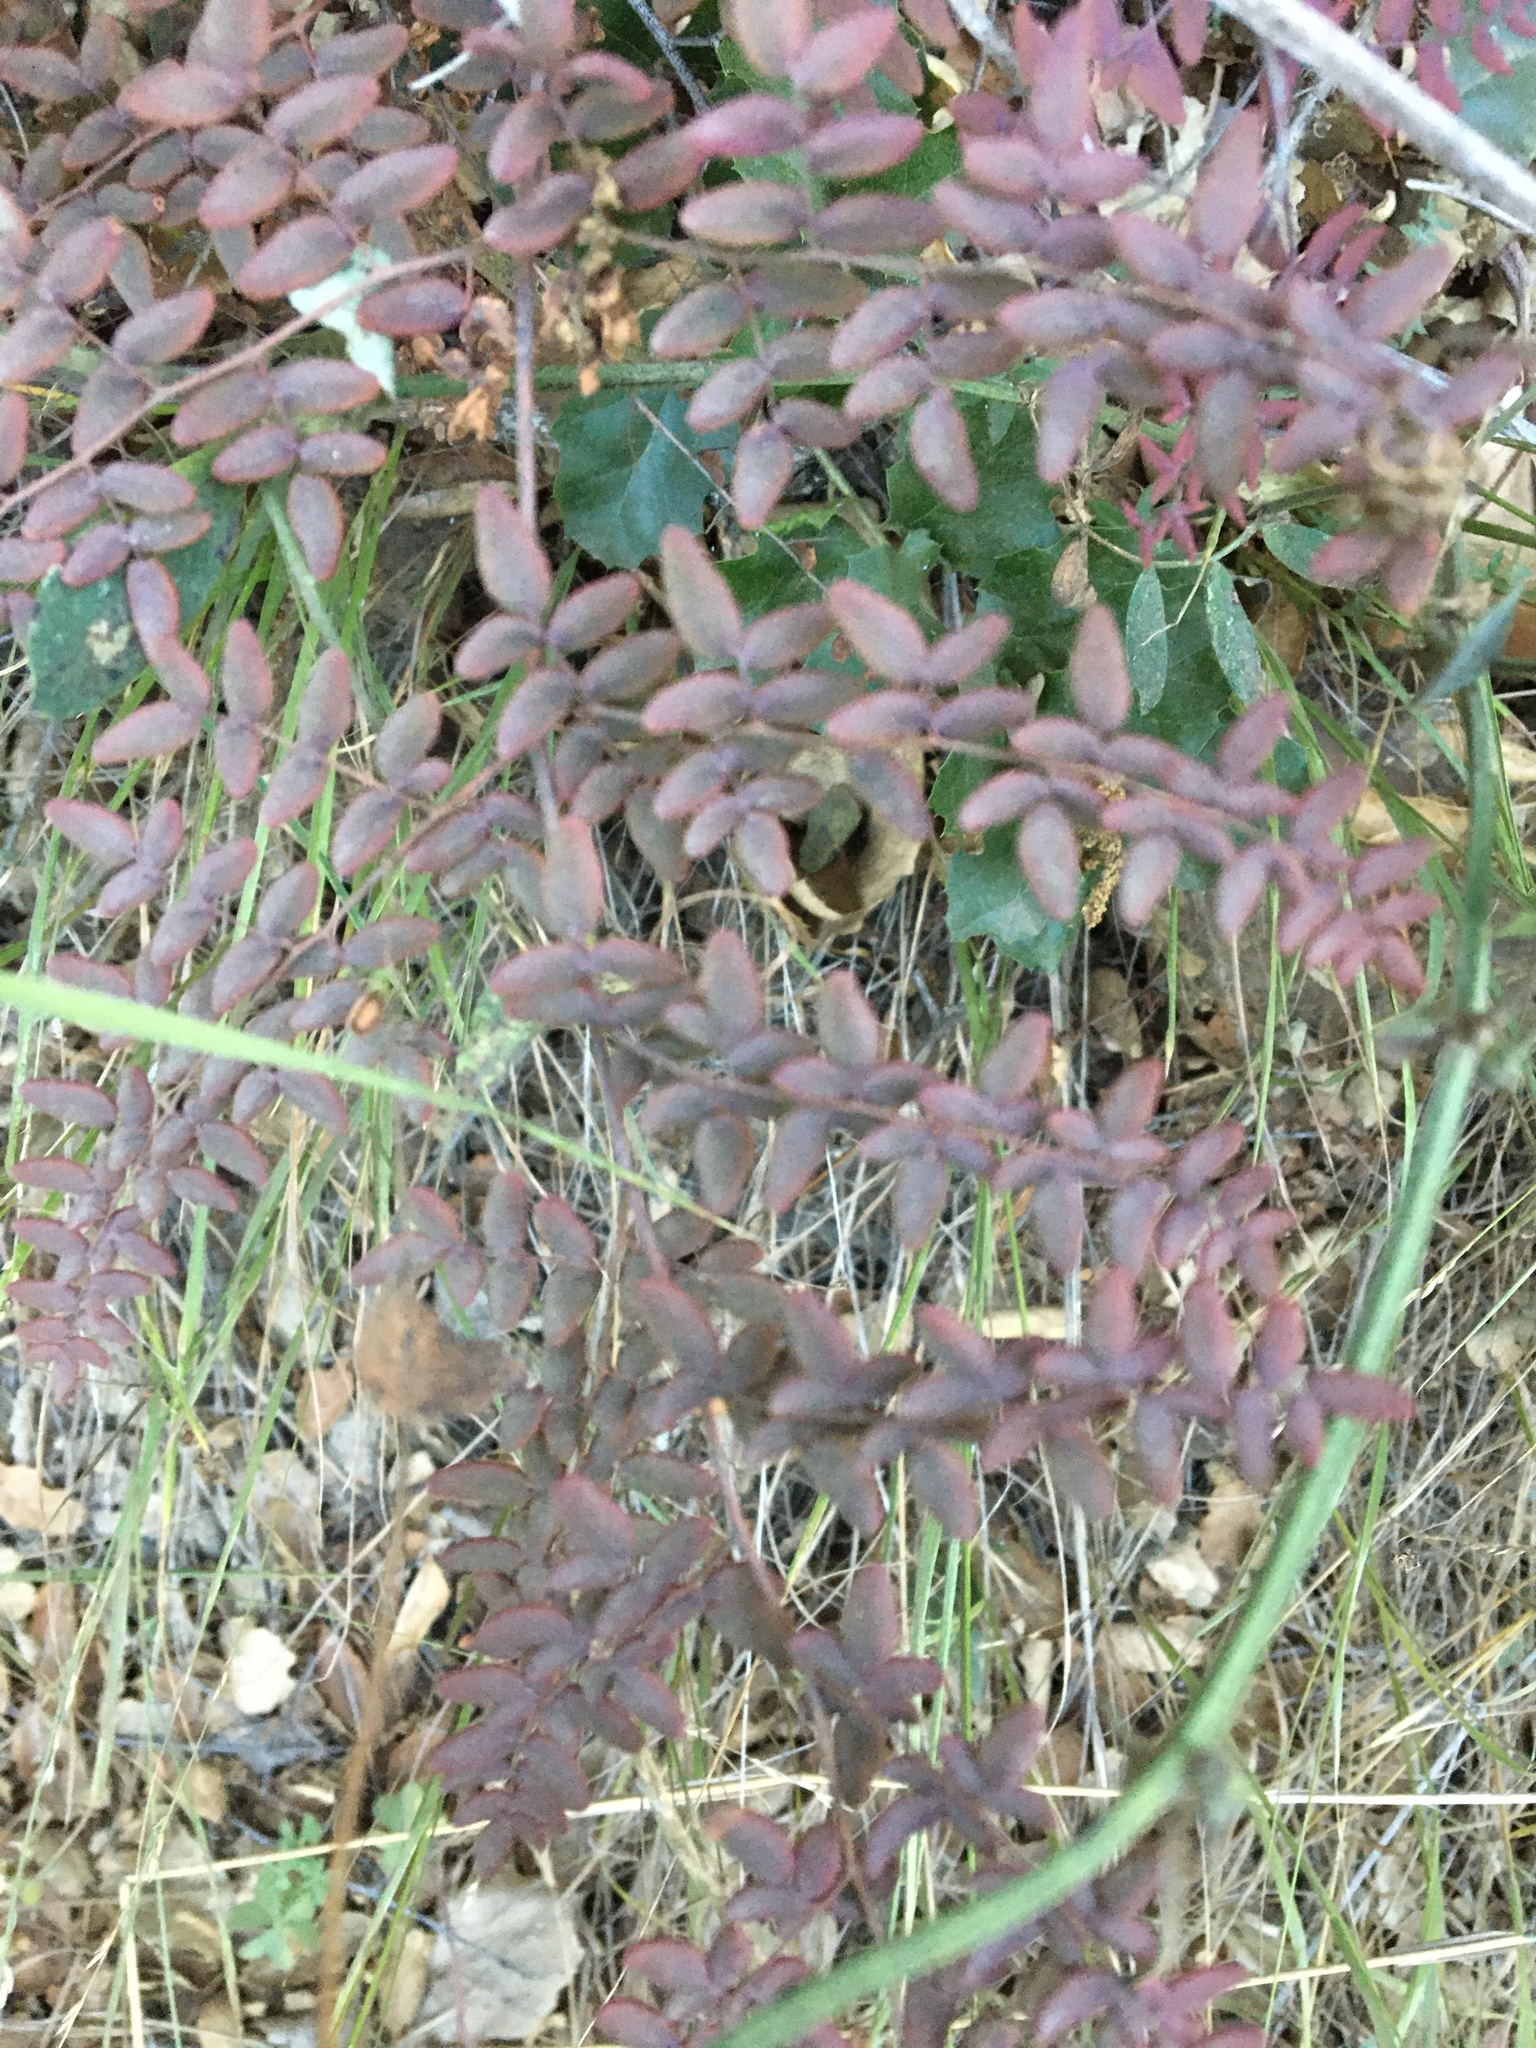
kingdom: Plantae
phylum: Tracheophyta
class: Polypodiopsida
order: Polypodiales
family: Pteridaceae
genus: Pellaea
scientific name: Pellaea andromedifolia
